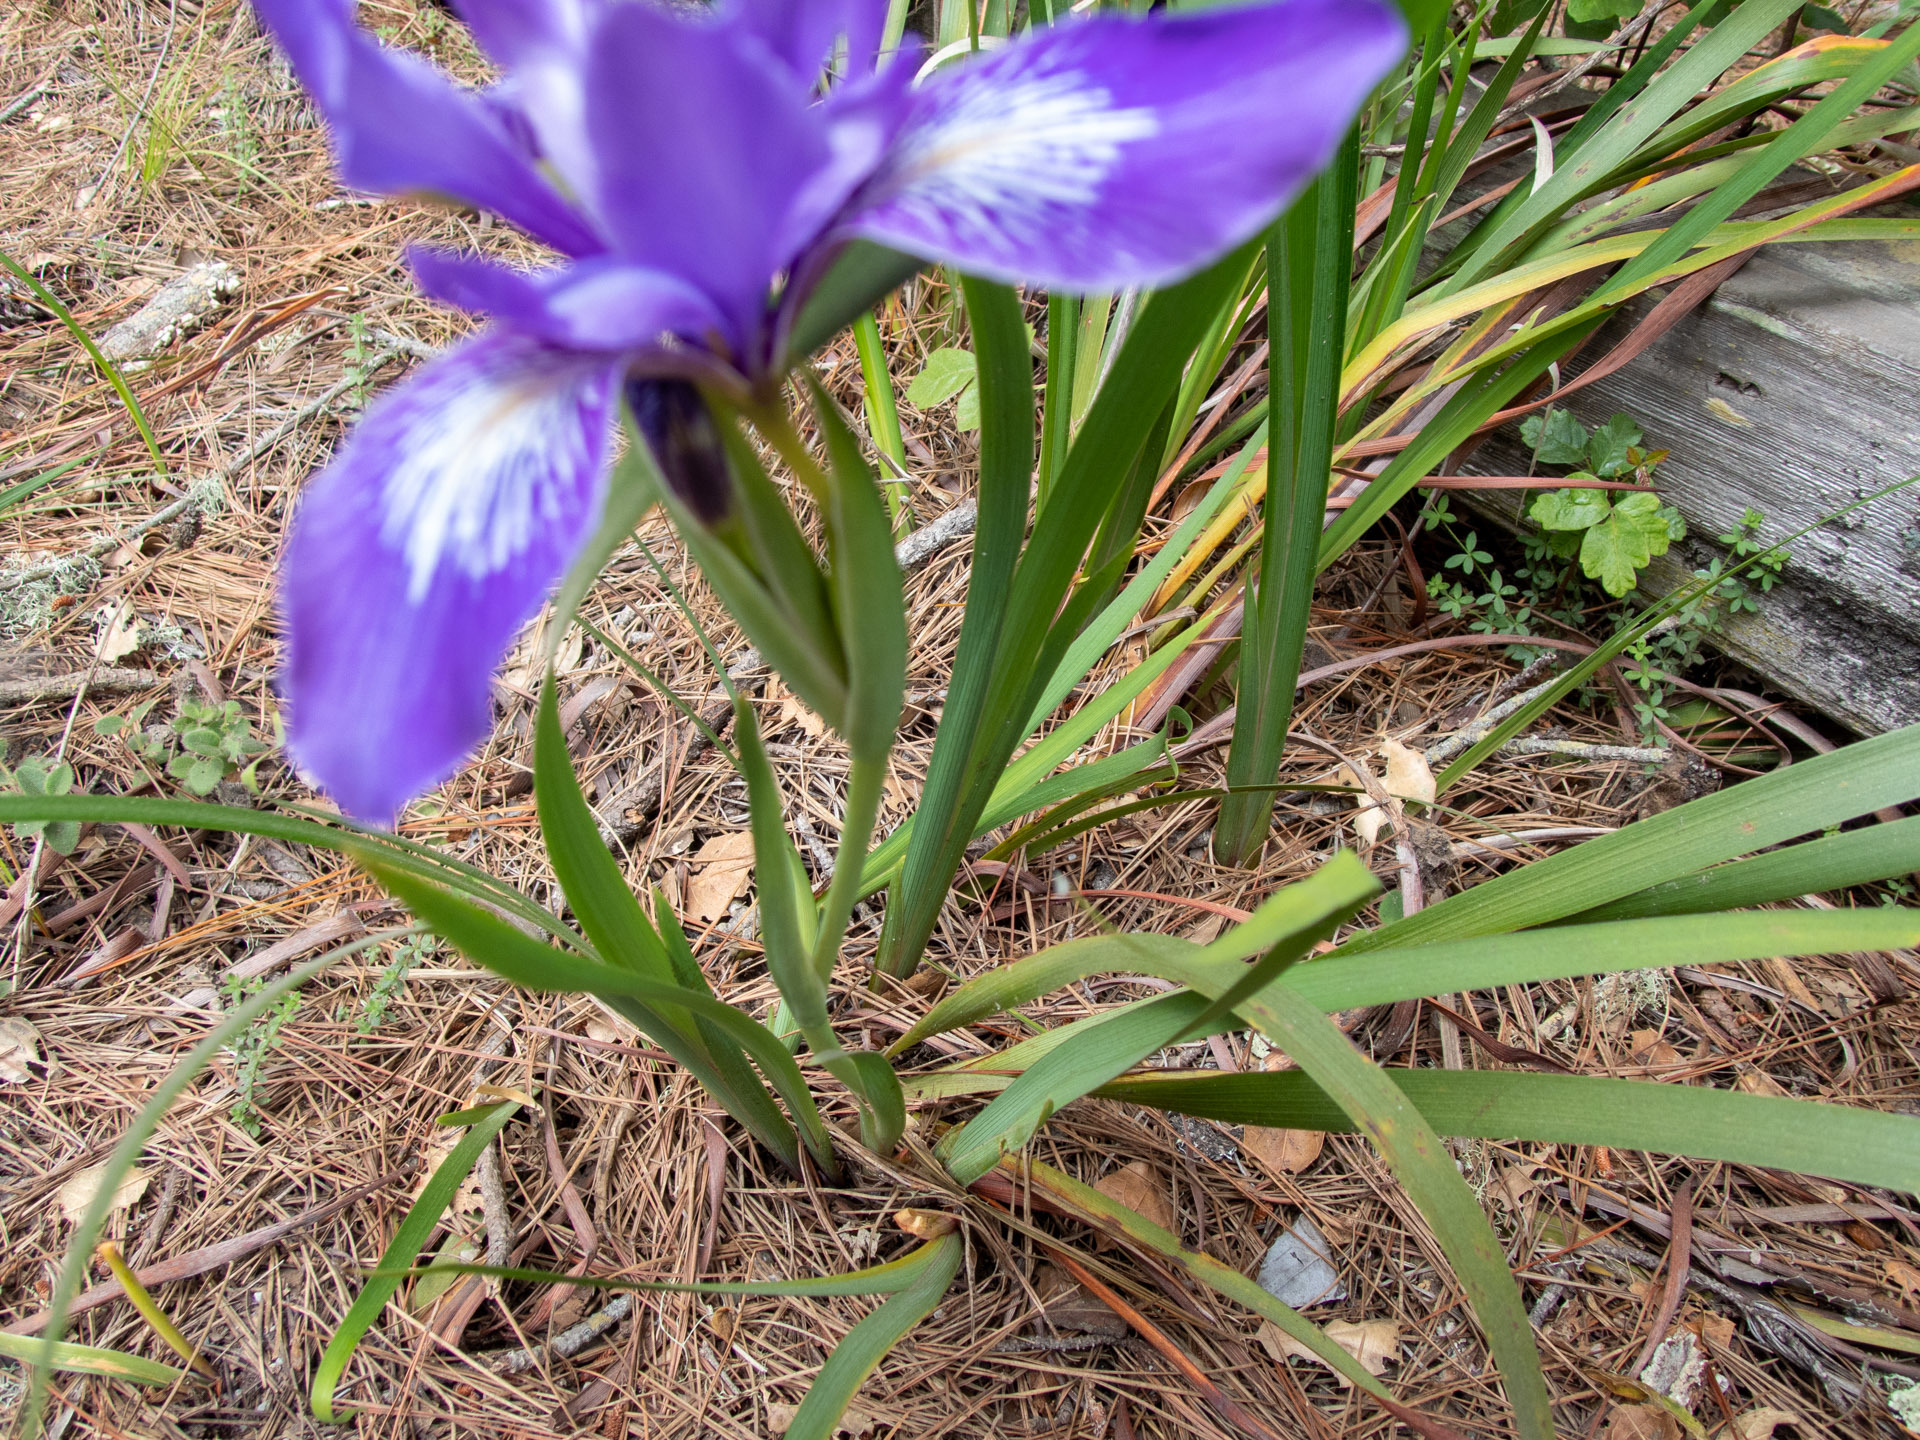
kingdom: Plantae
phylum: Tracheophyta
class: Liliopsida
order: Asparagales
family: Iridaceae
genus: Iris
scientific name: Iris douglasiana
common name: Marin iris
